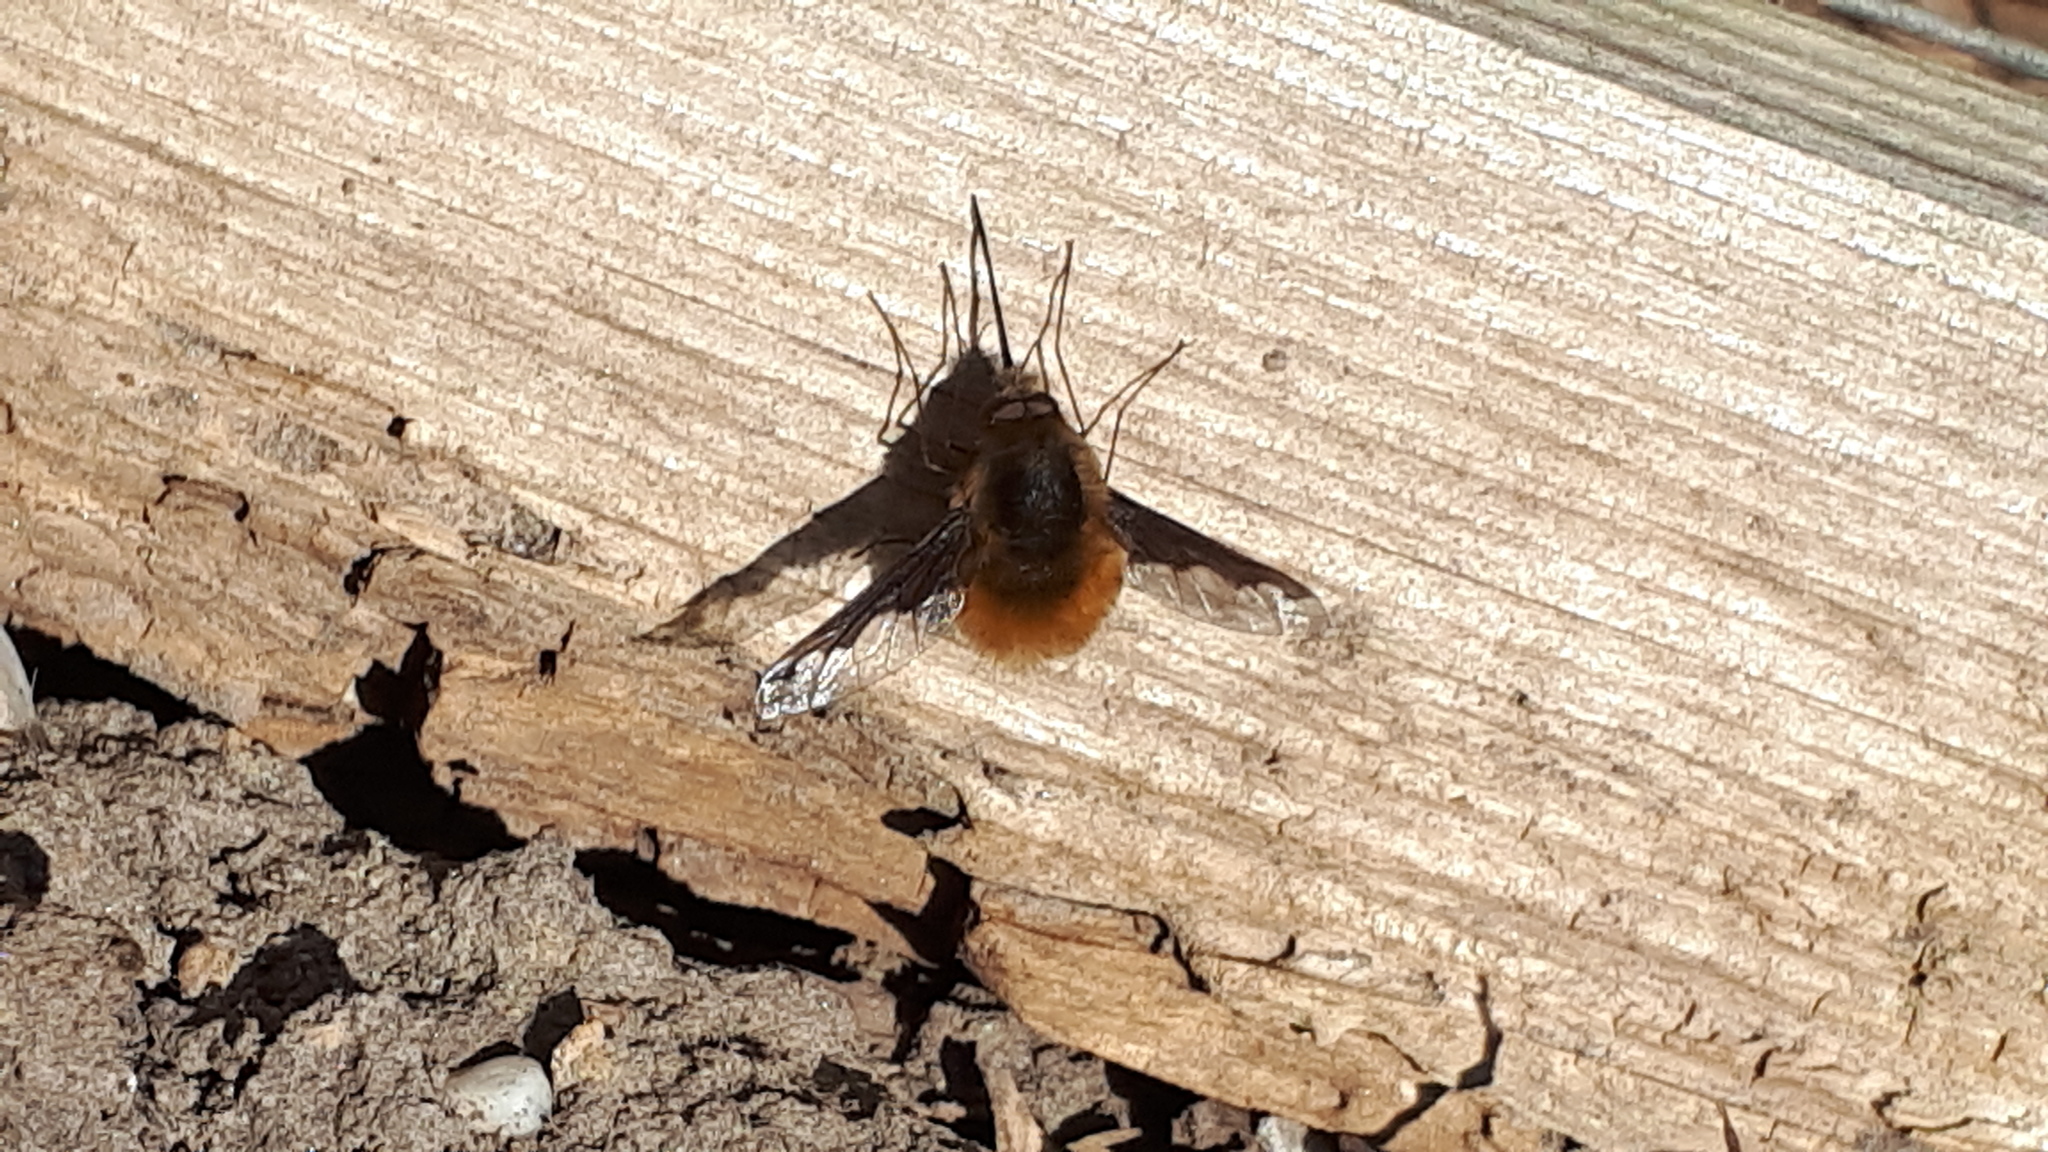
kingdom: Animalia
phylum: Arthropoda
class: Insecta
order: Diptera
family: Bombyliidae
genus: Bombylius
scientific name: Bombylius major
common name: Bee fly
